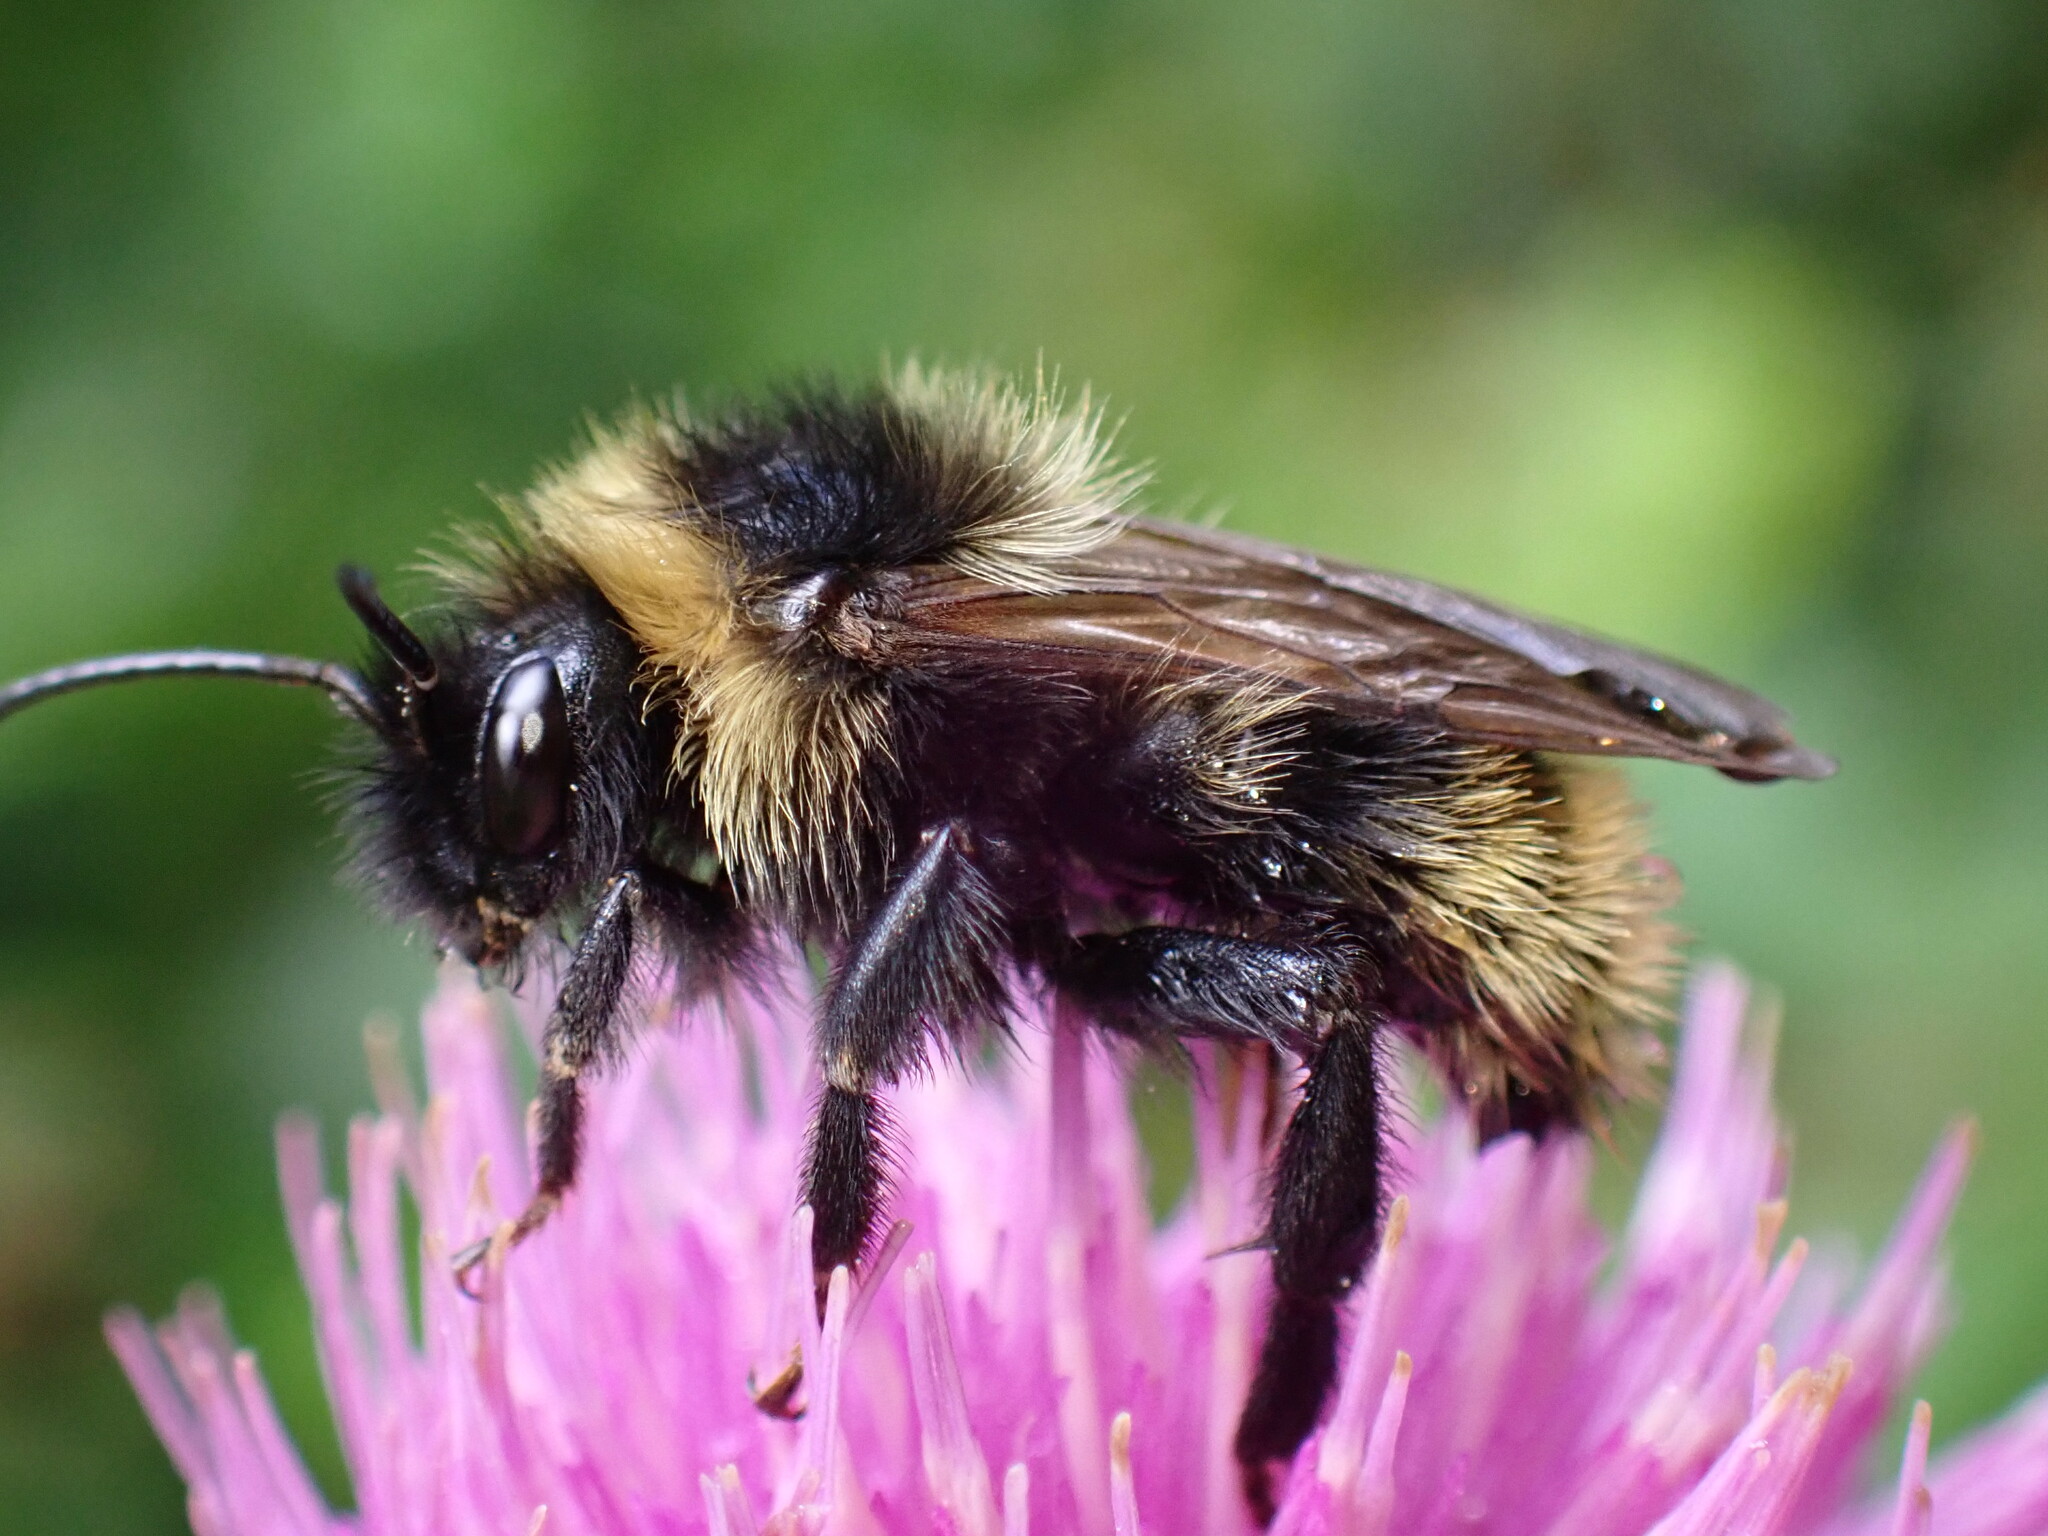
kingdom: Animalia
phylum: Arthropoda
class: Insecta
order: Hymenoptera
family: Apidae
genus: Bombus
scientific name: Bombus campestris
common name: Field cuckoo-bee
